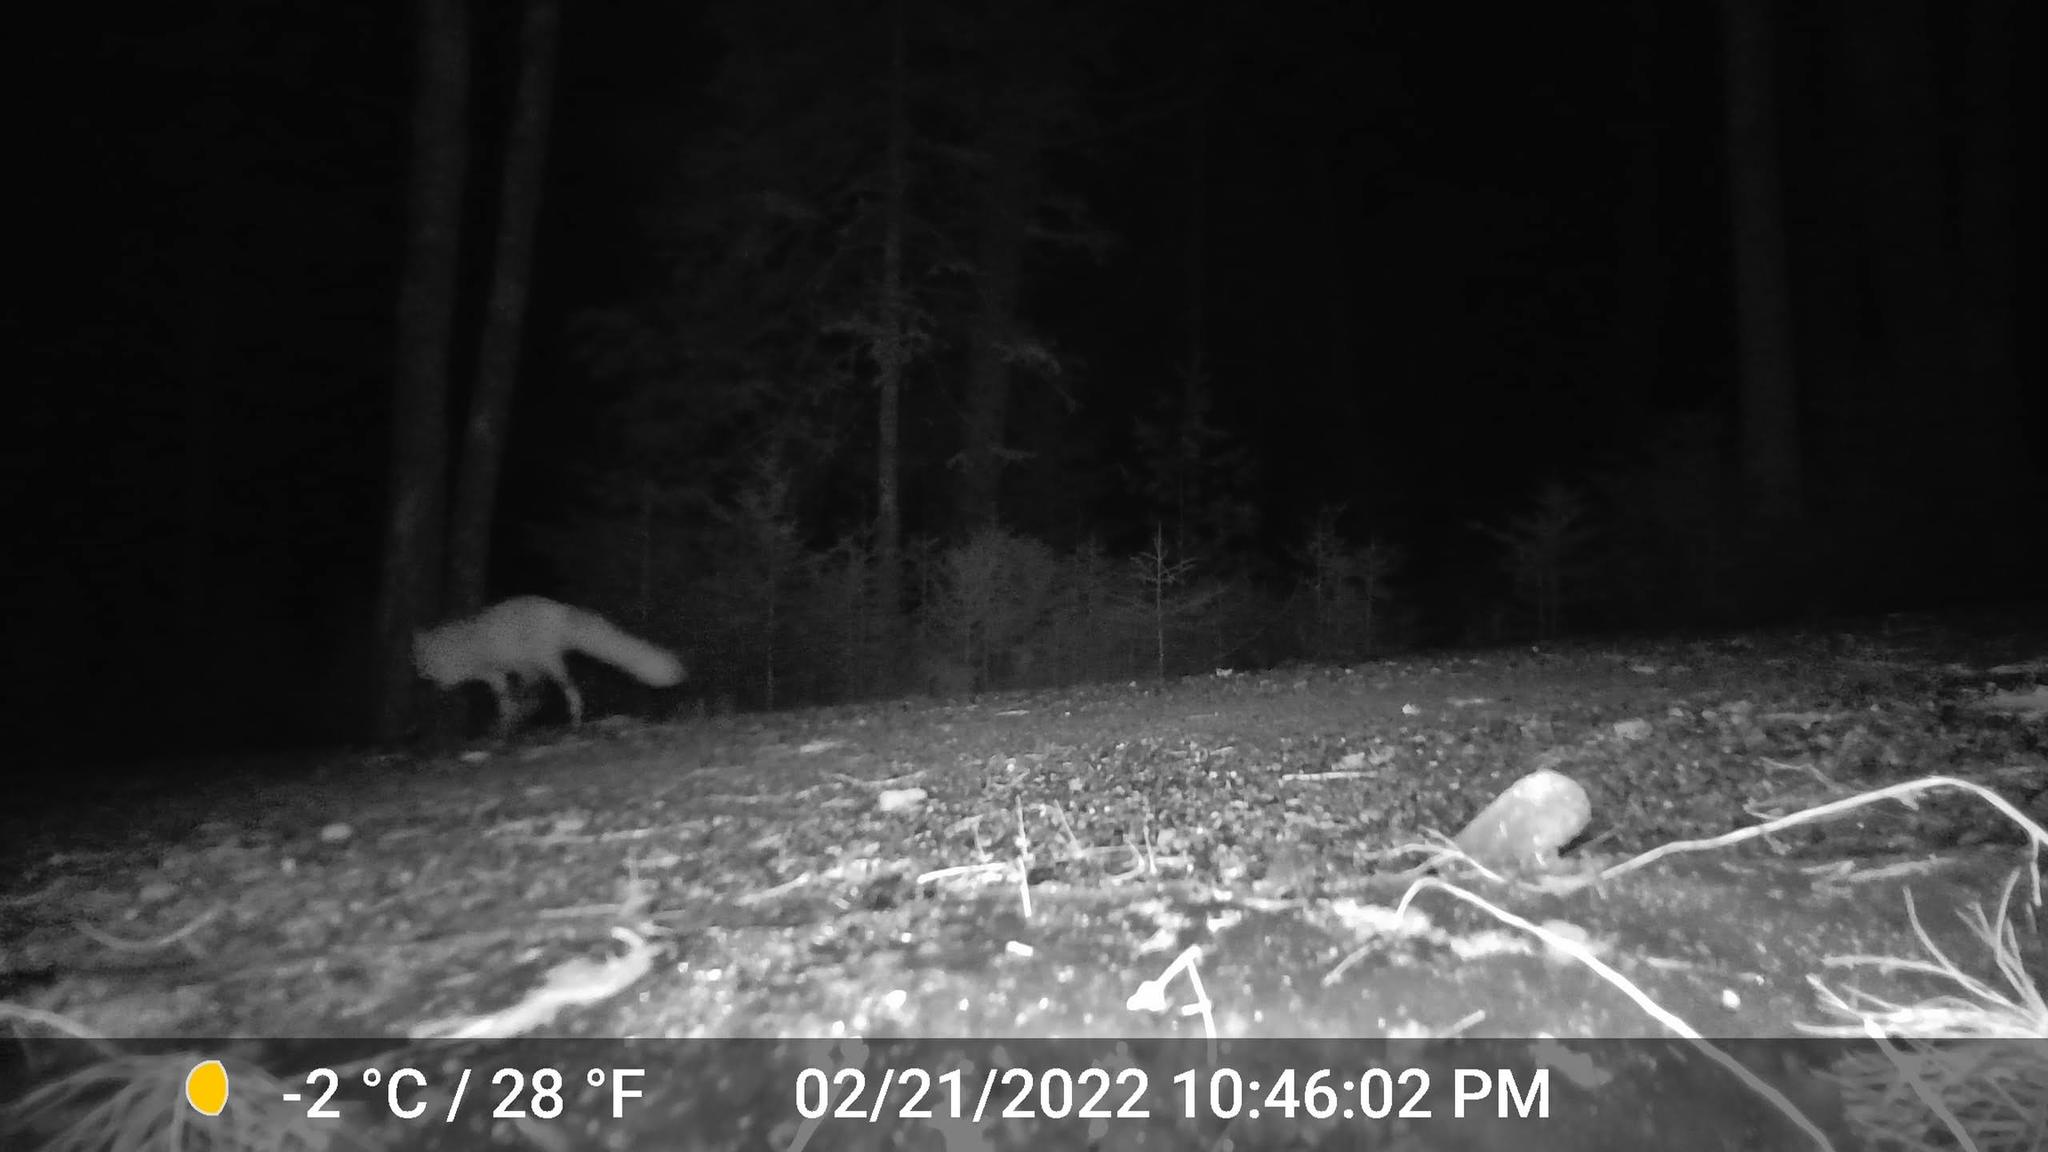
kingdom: Animalia
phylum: Chordata
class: Mammalia
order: Carnivora
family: Canidae
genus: Vulpes
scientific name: Vulpes vulpes
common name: Red fox
